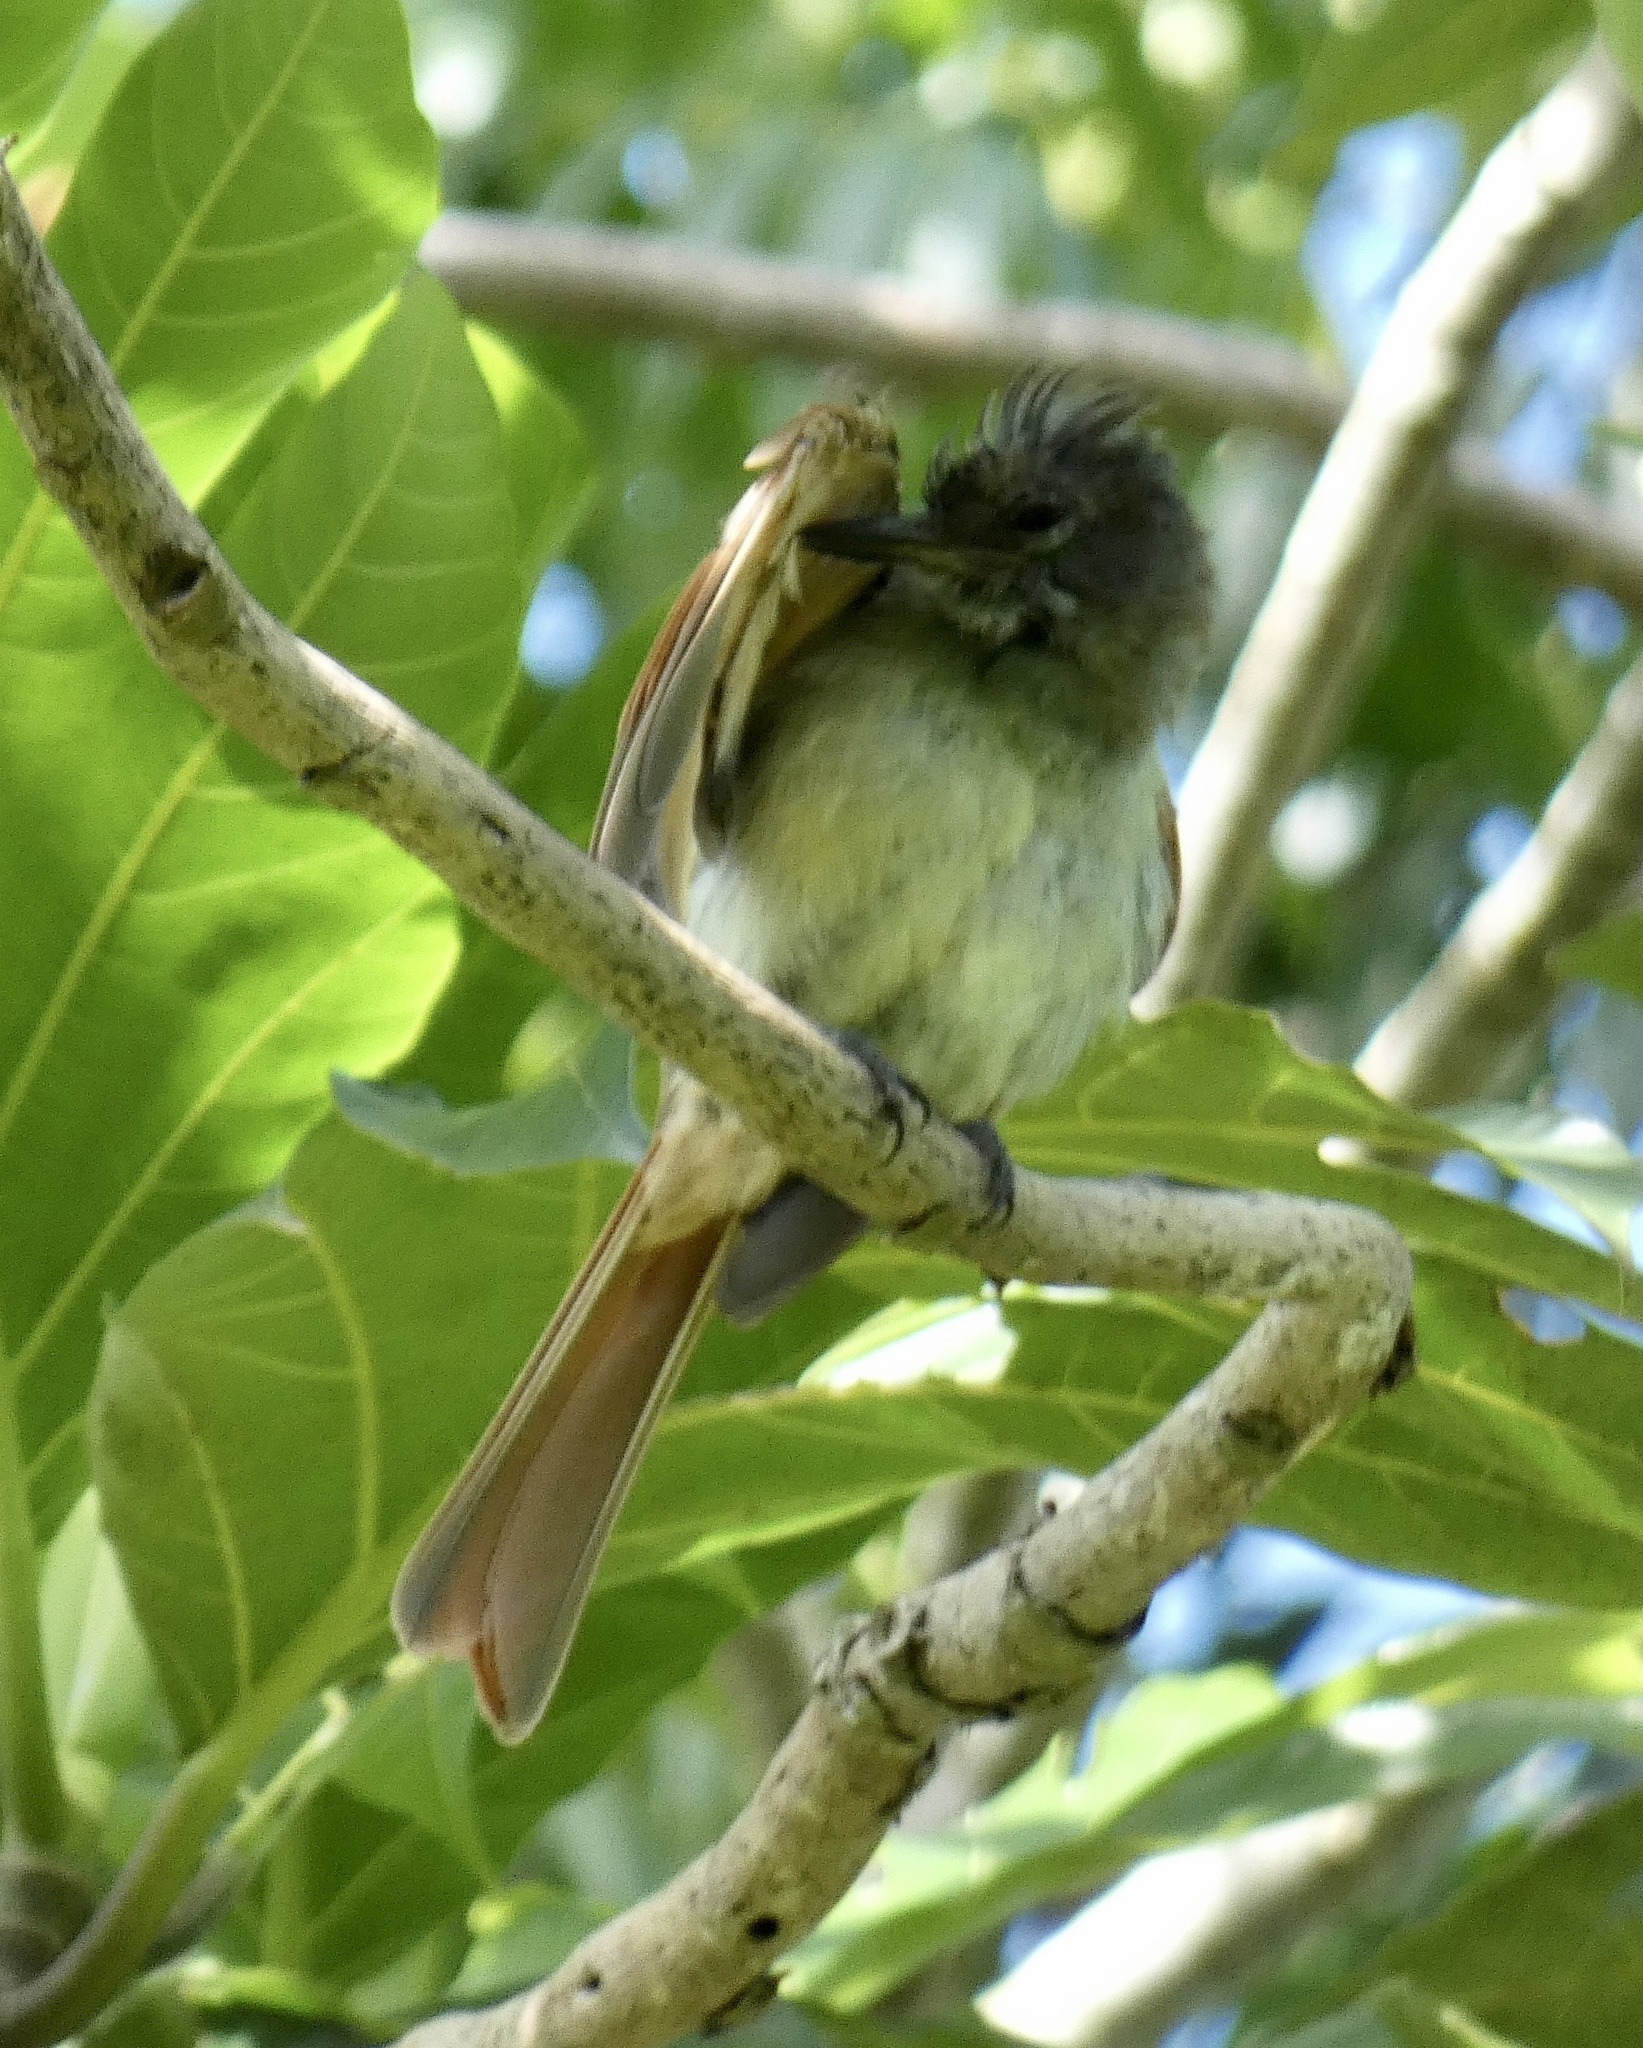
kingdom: Animalia
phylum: Chordata
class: Aves
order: Passeriformes
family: Tyrannidae
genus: Myiarchus
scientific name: Myiarchus validus
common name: Rufous-tailed flycatcher
